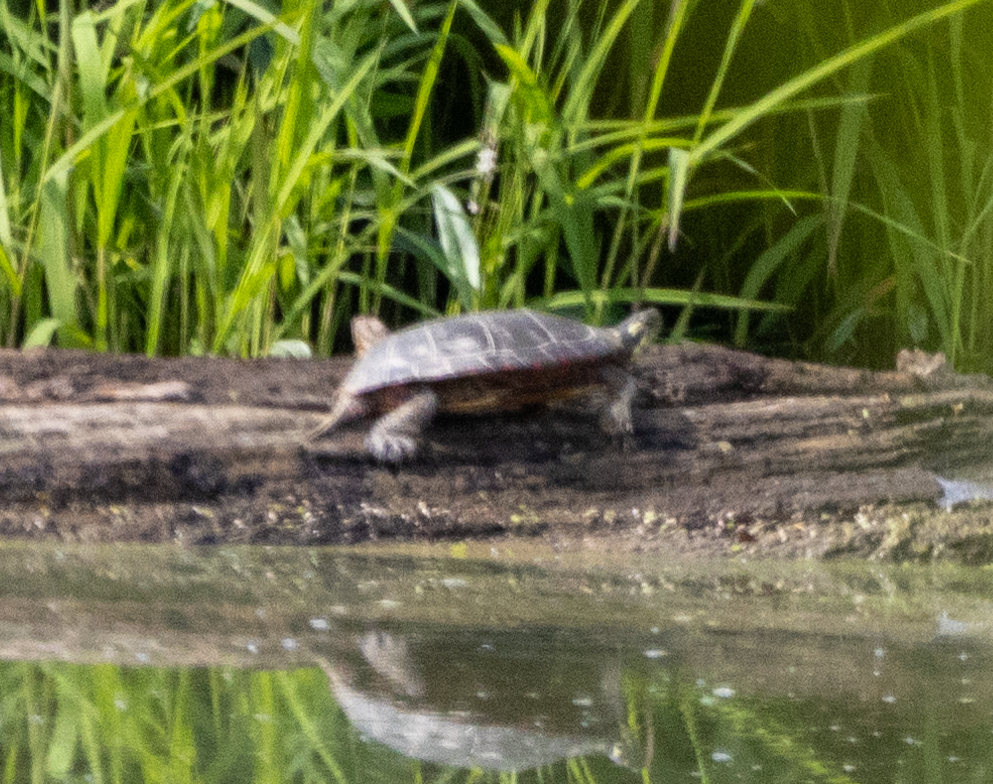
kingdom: Animalia
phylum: Chordata
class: Testudines
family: Emydidae
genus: Chrysemys
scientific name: Chrysemys picta
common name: Painted turtle
